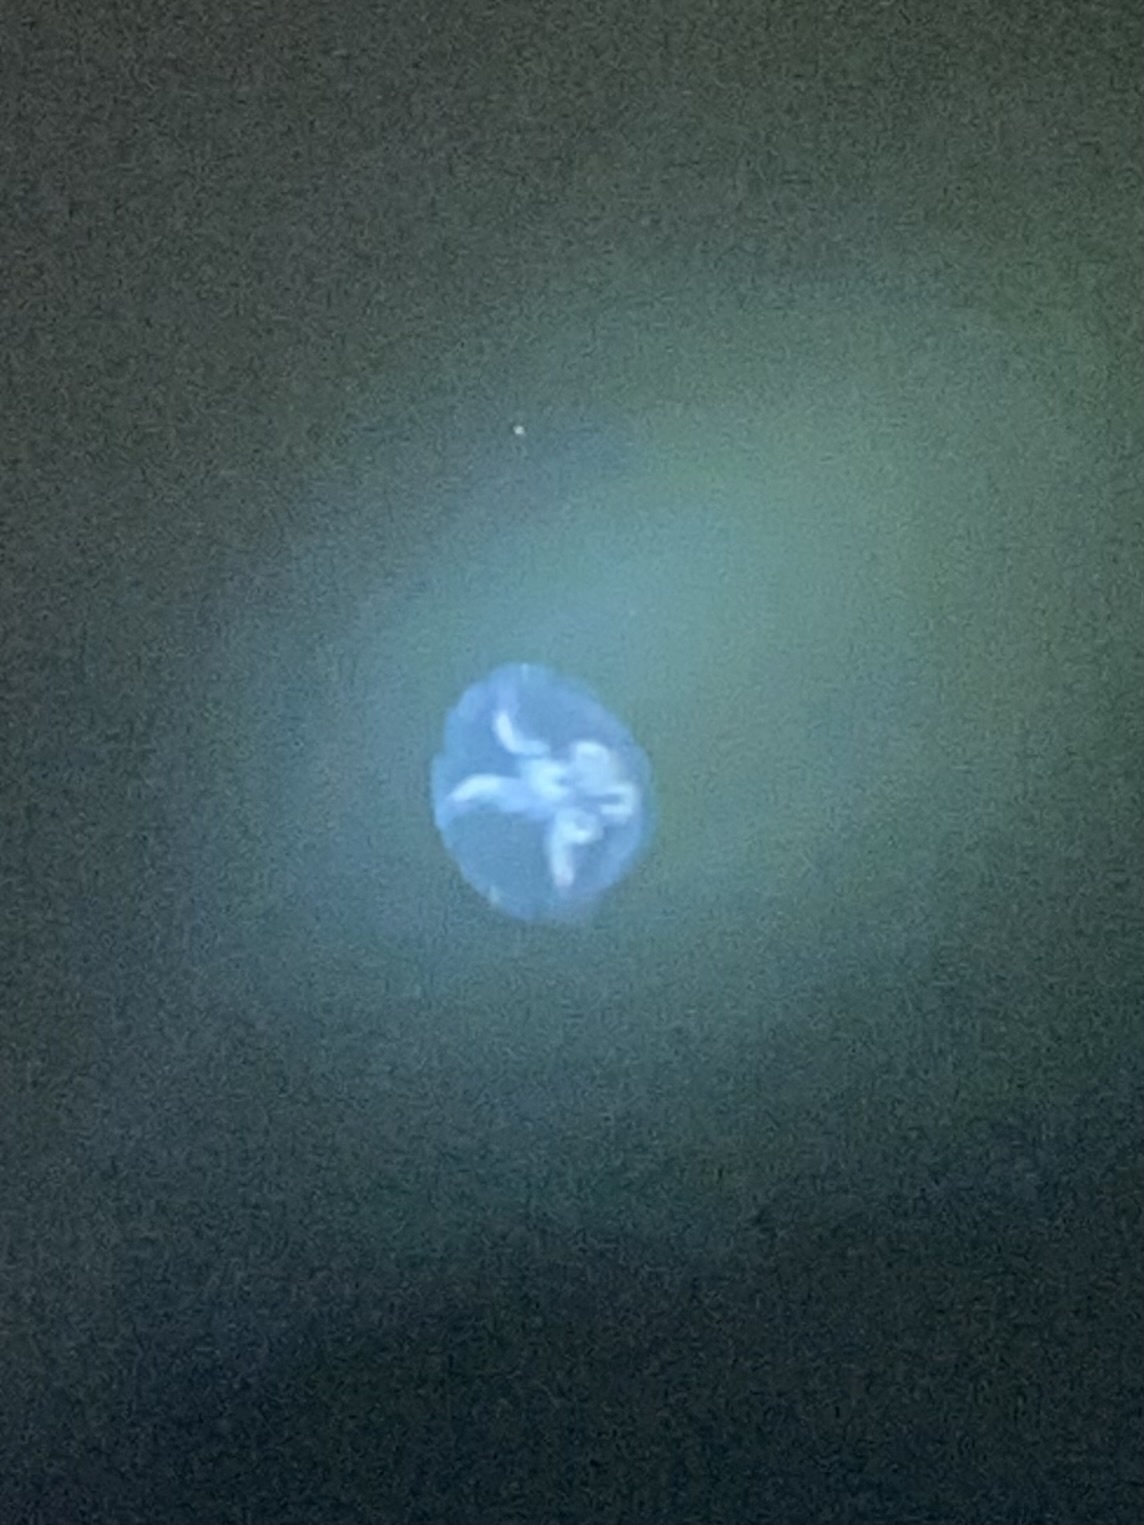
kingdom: Animalia
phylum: Cnidaria
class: Scyphozoa
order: Semaeostomeae
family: Ulmaridae
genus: Aurelia
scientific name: Aurelia aurita
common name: Moon jellyfish
